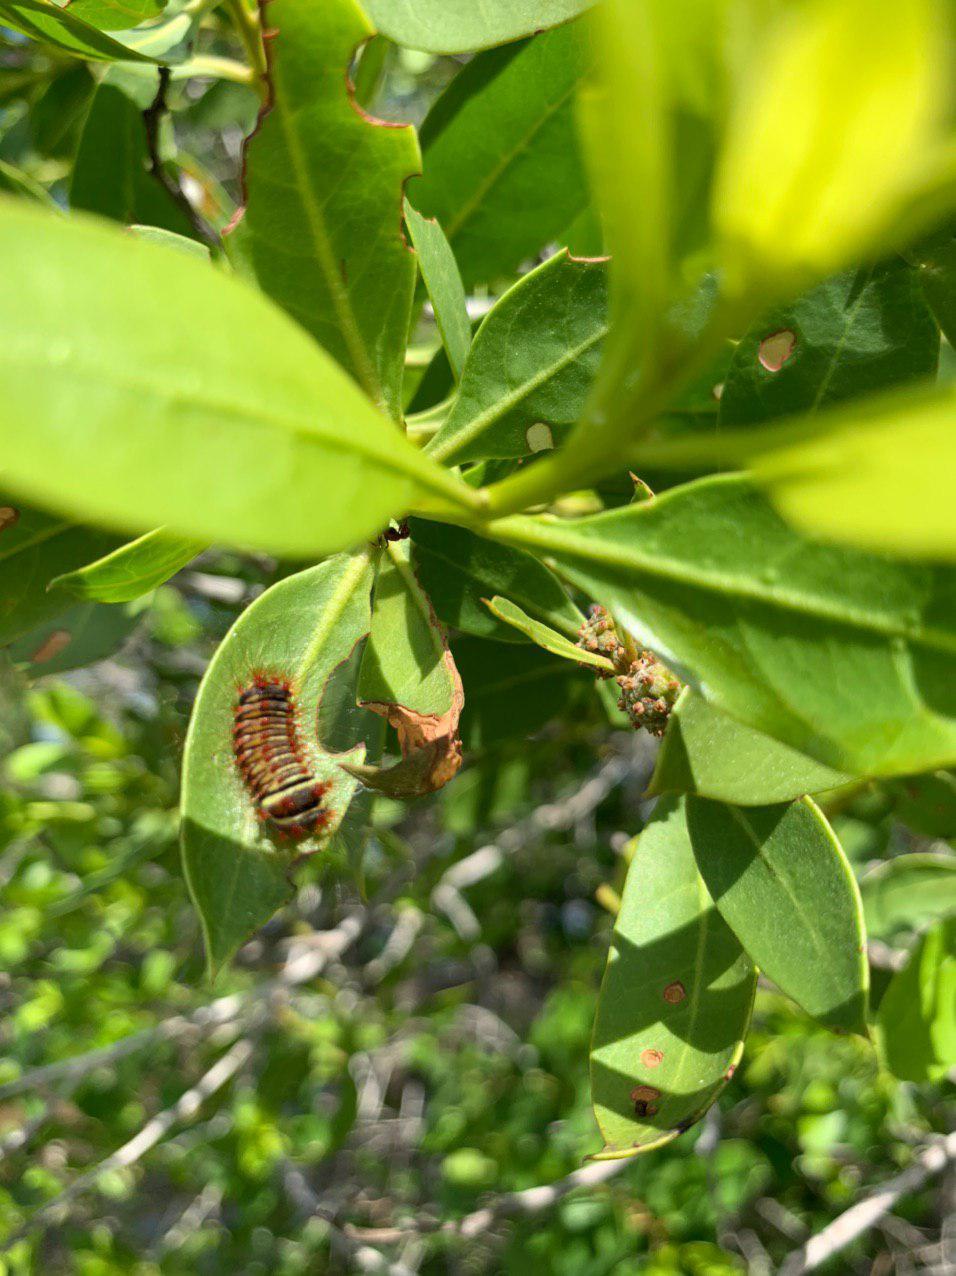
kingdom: Animalia
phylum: Arthropoda
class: Insecta
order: Lepidoptera
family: Megalopygidae
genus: Megalopyge
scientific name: Megalopyge lanata
